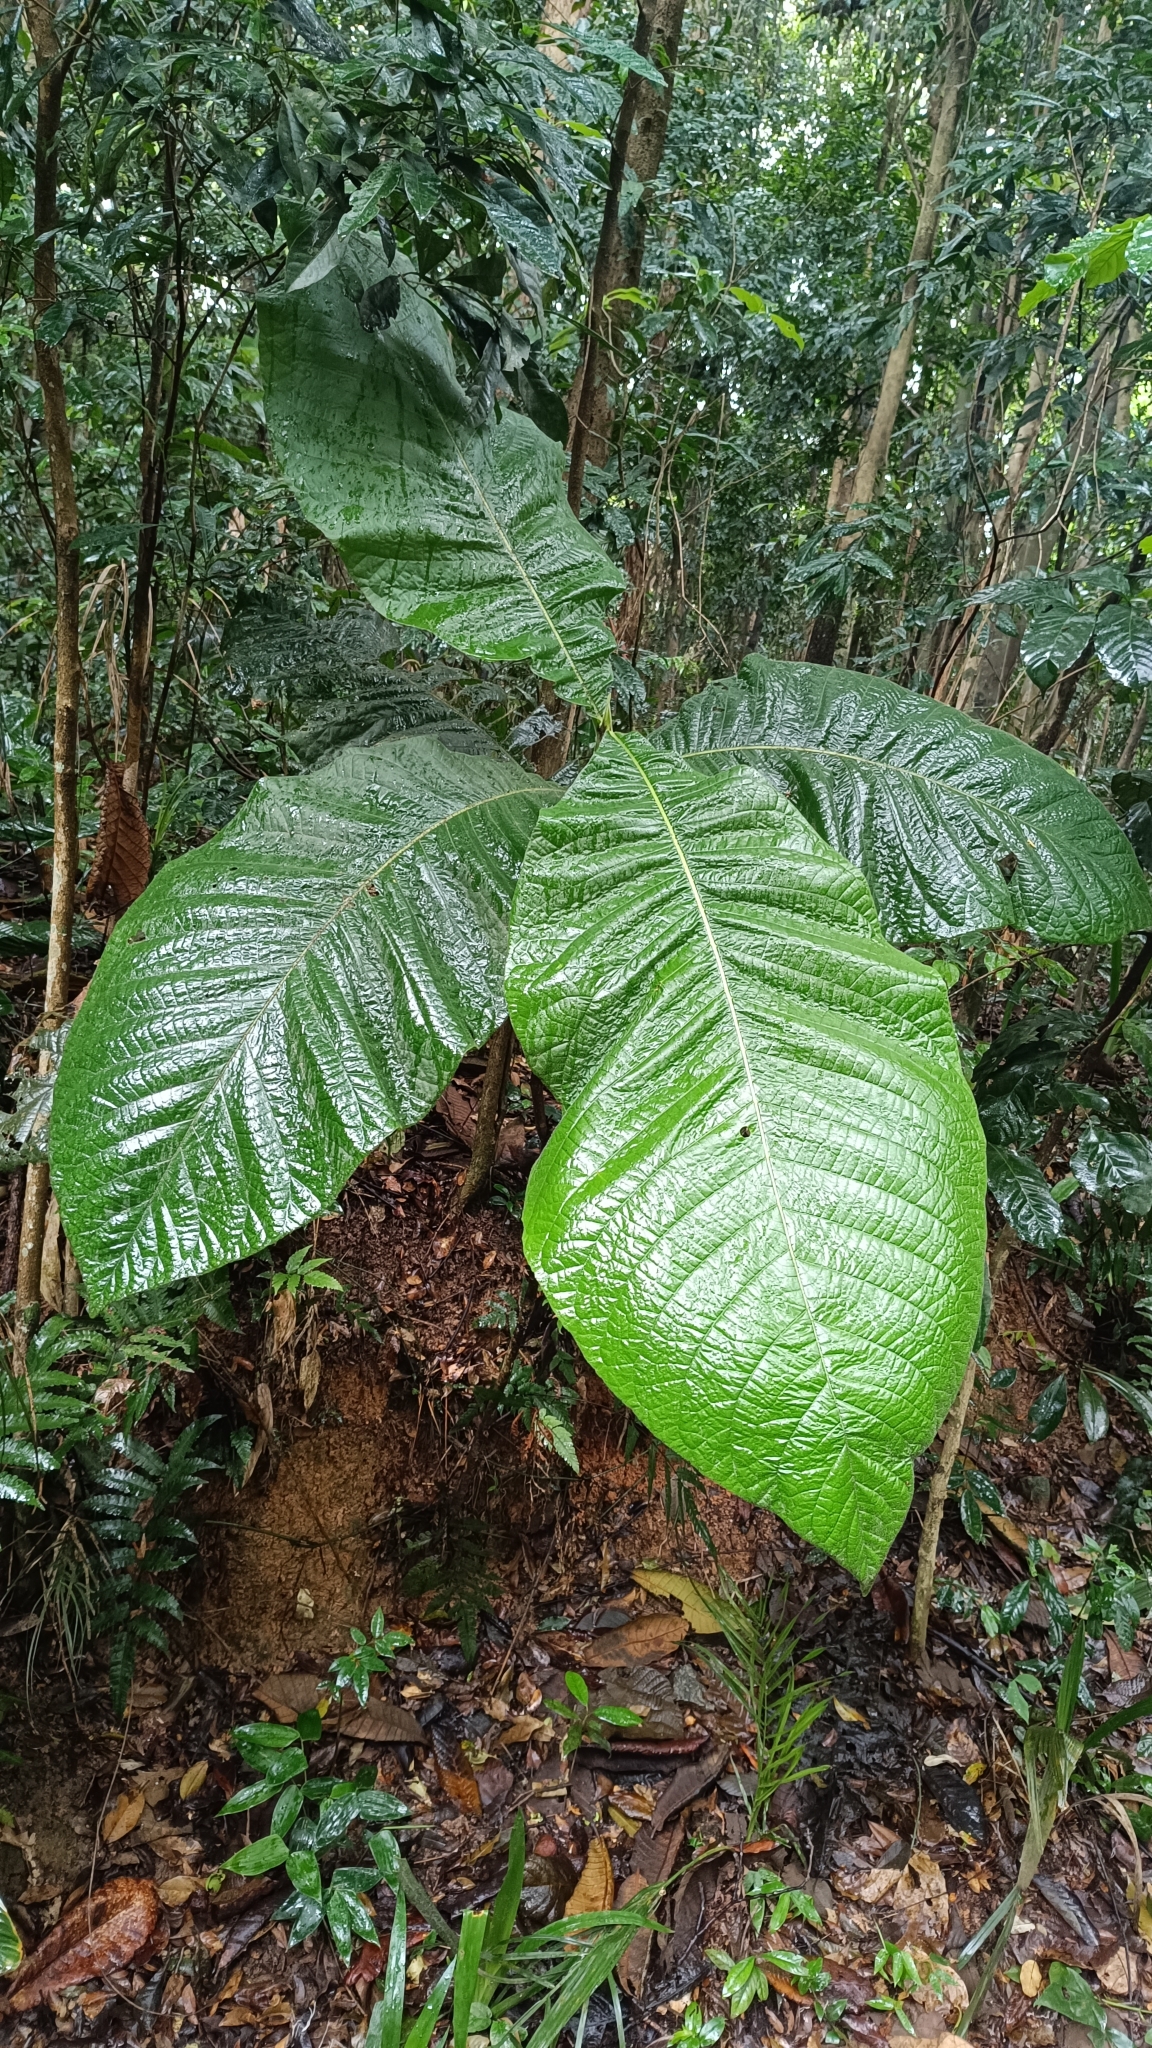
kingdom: Plantae
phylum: Tracheophyta
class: Magnoliopsida
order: Gentianales
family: Rubiaceae
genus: Bathysa
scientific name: Bathysa australis
